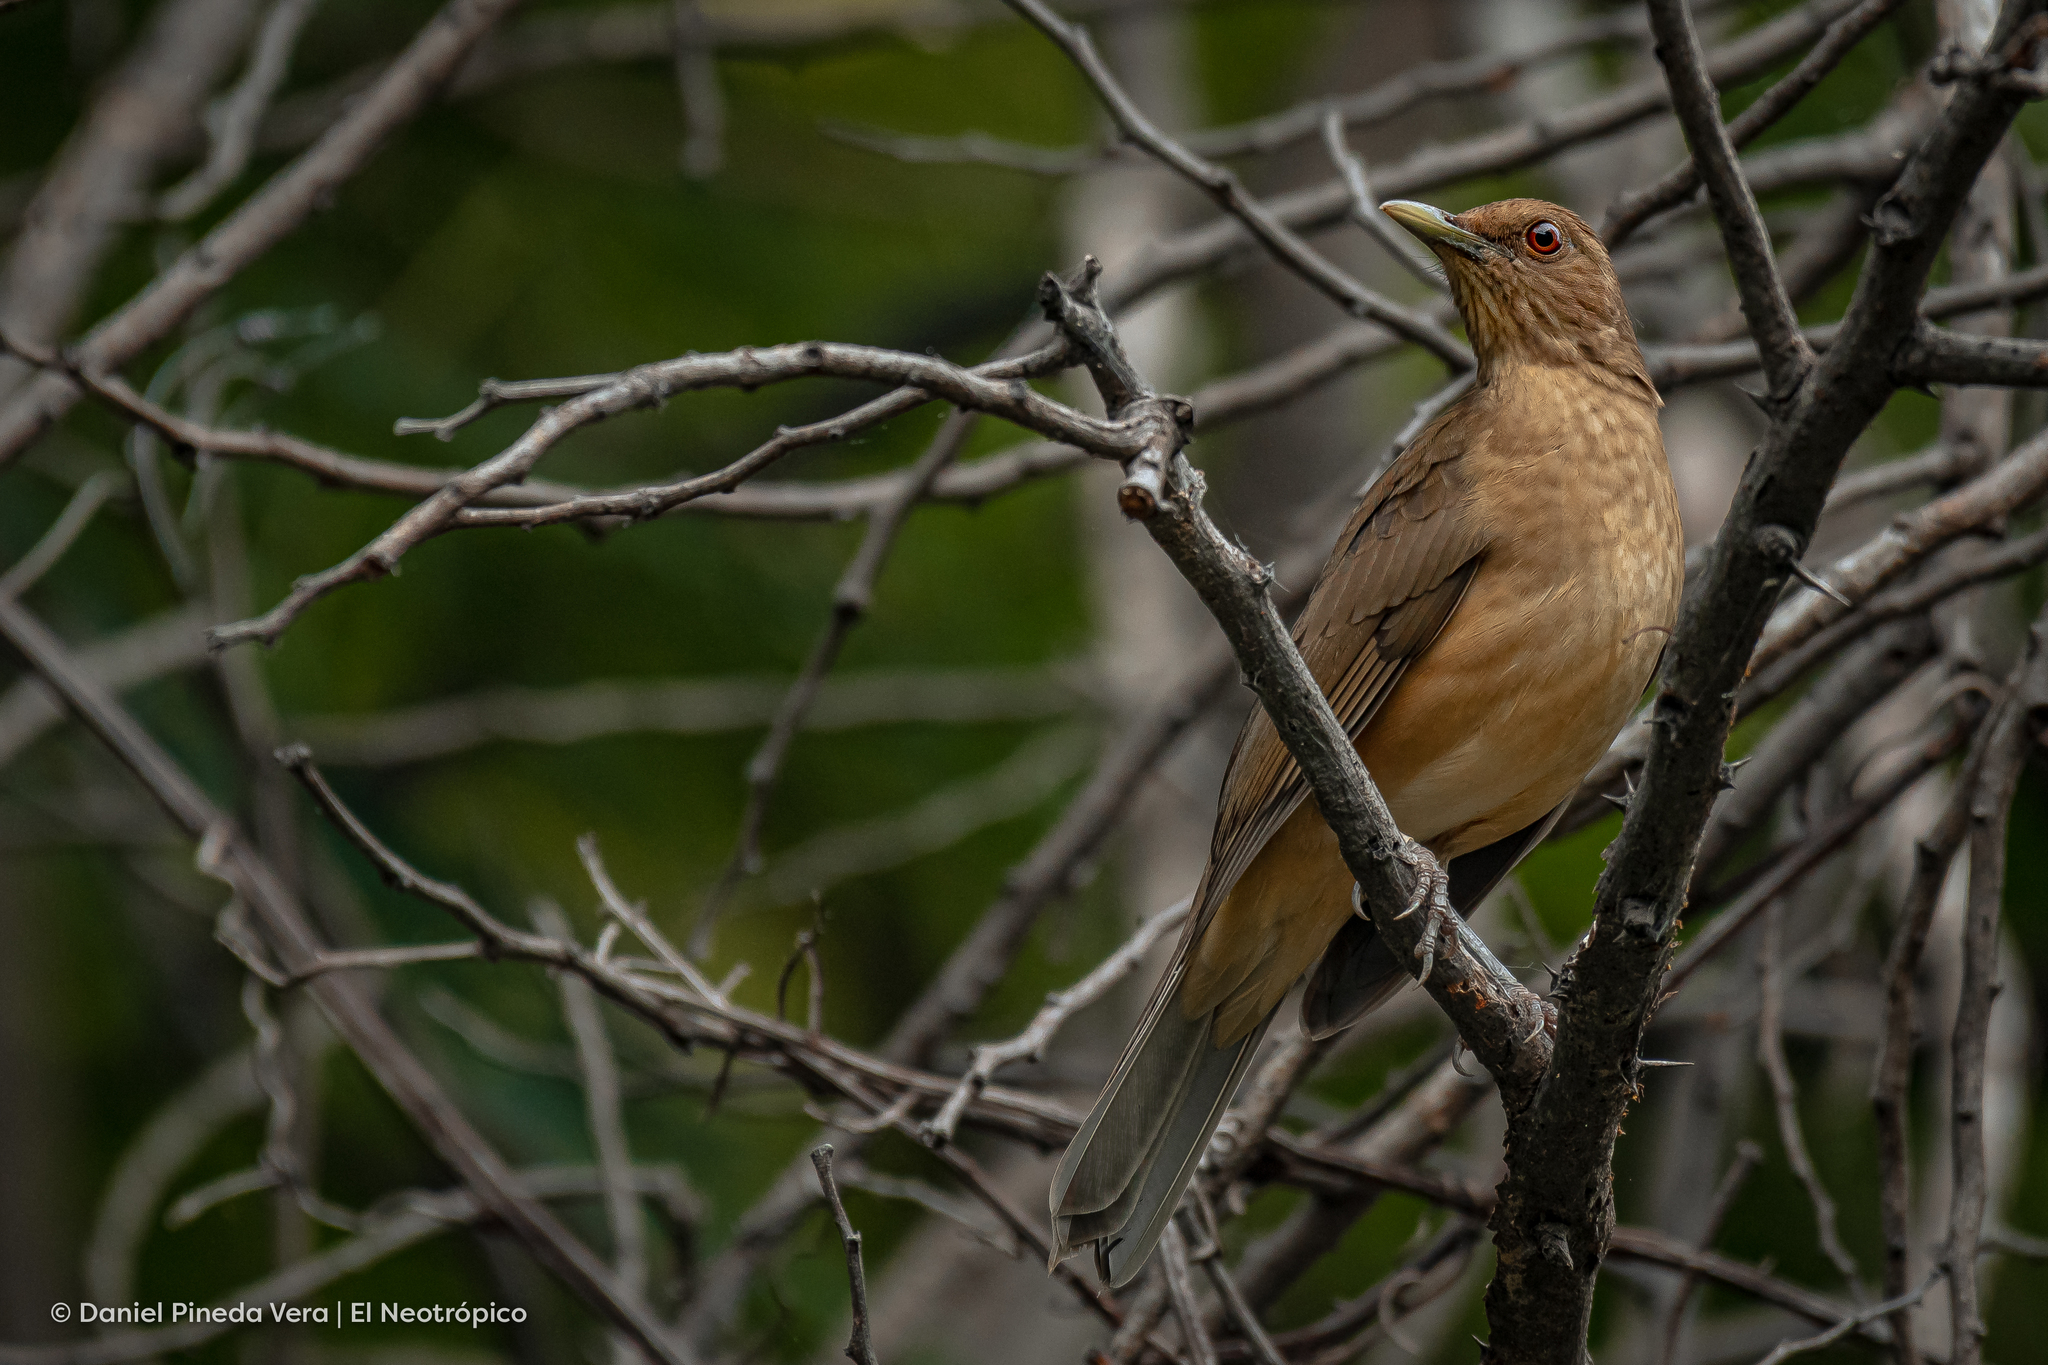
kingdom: Animalia
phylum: Chordata
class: Aves
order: Passeriformes
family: Turdidae
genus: Turdus
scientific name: Turdus grayi
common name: Clay-colored thrush
